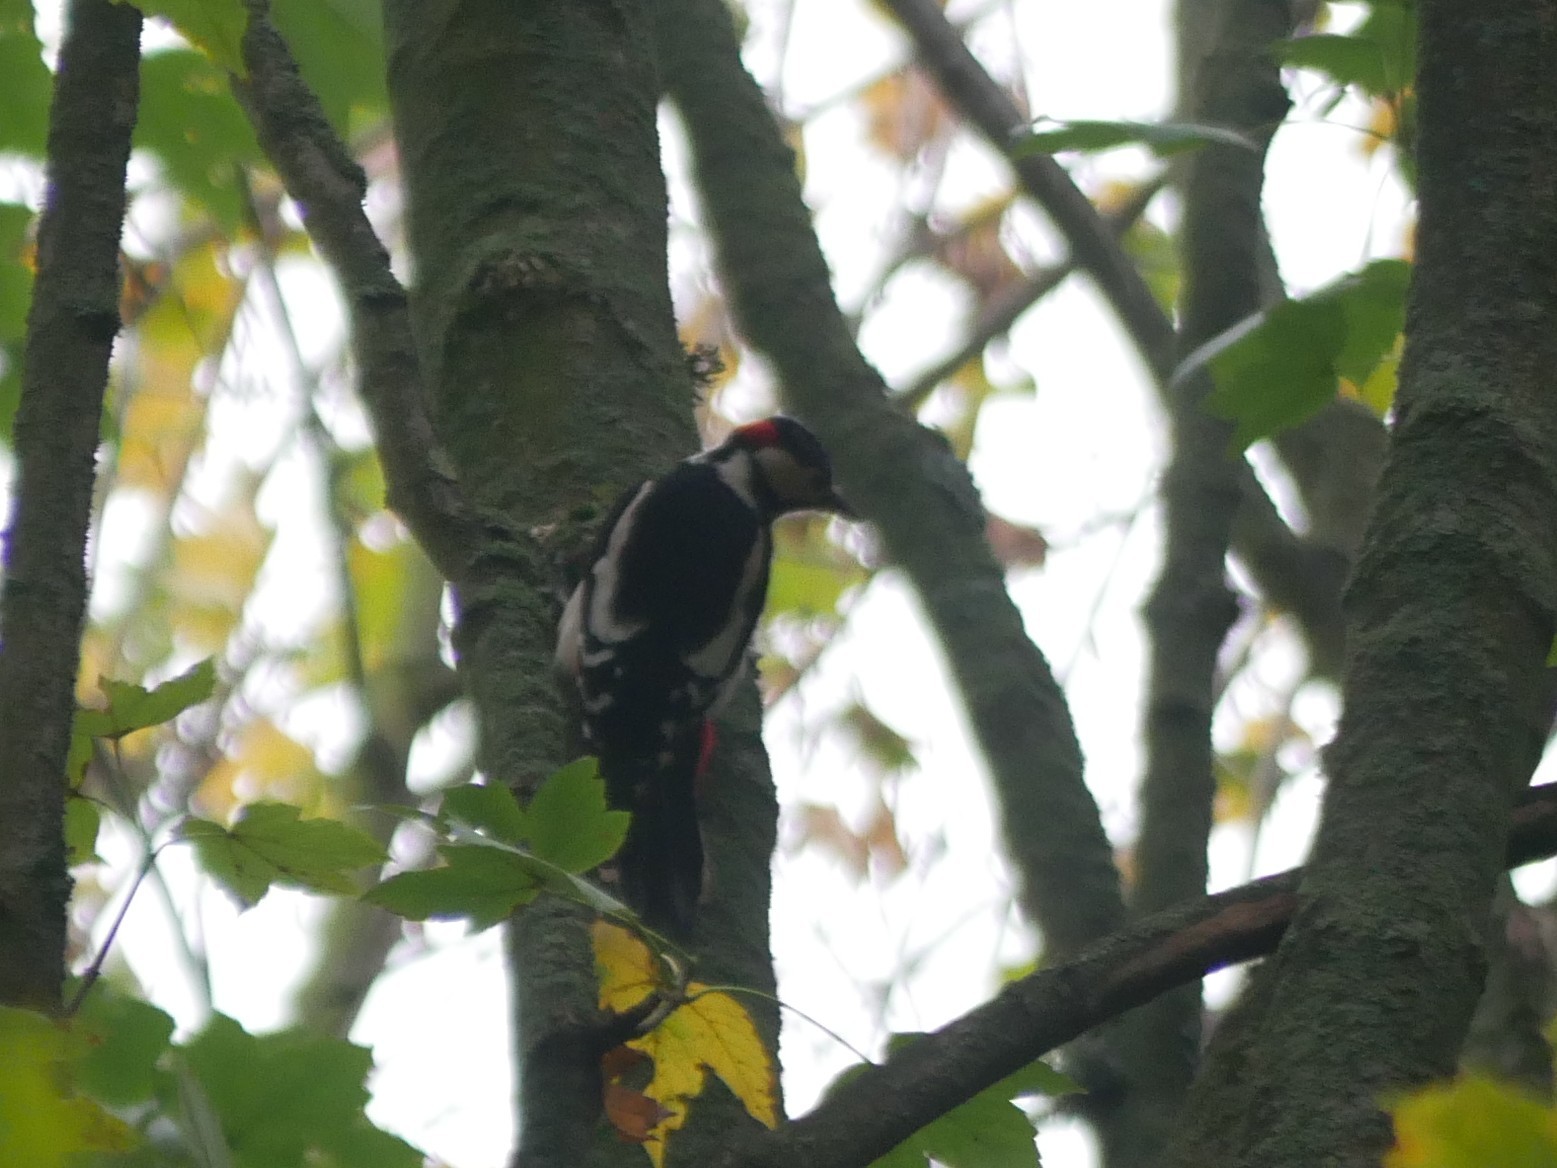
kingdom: Animalia
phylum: Chordata
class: Aves
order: Piciformes
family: Picidae
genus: Dendrocopos
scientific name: Dendrocopos major
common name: Great spotted woodpecker
